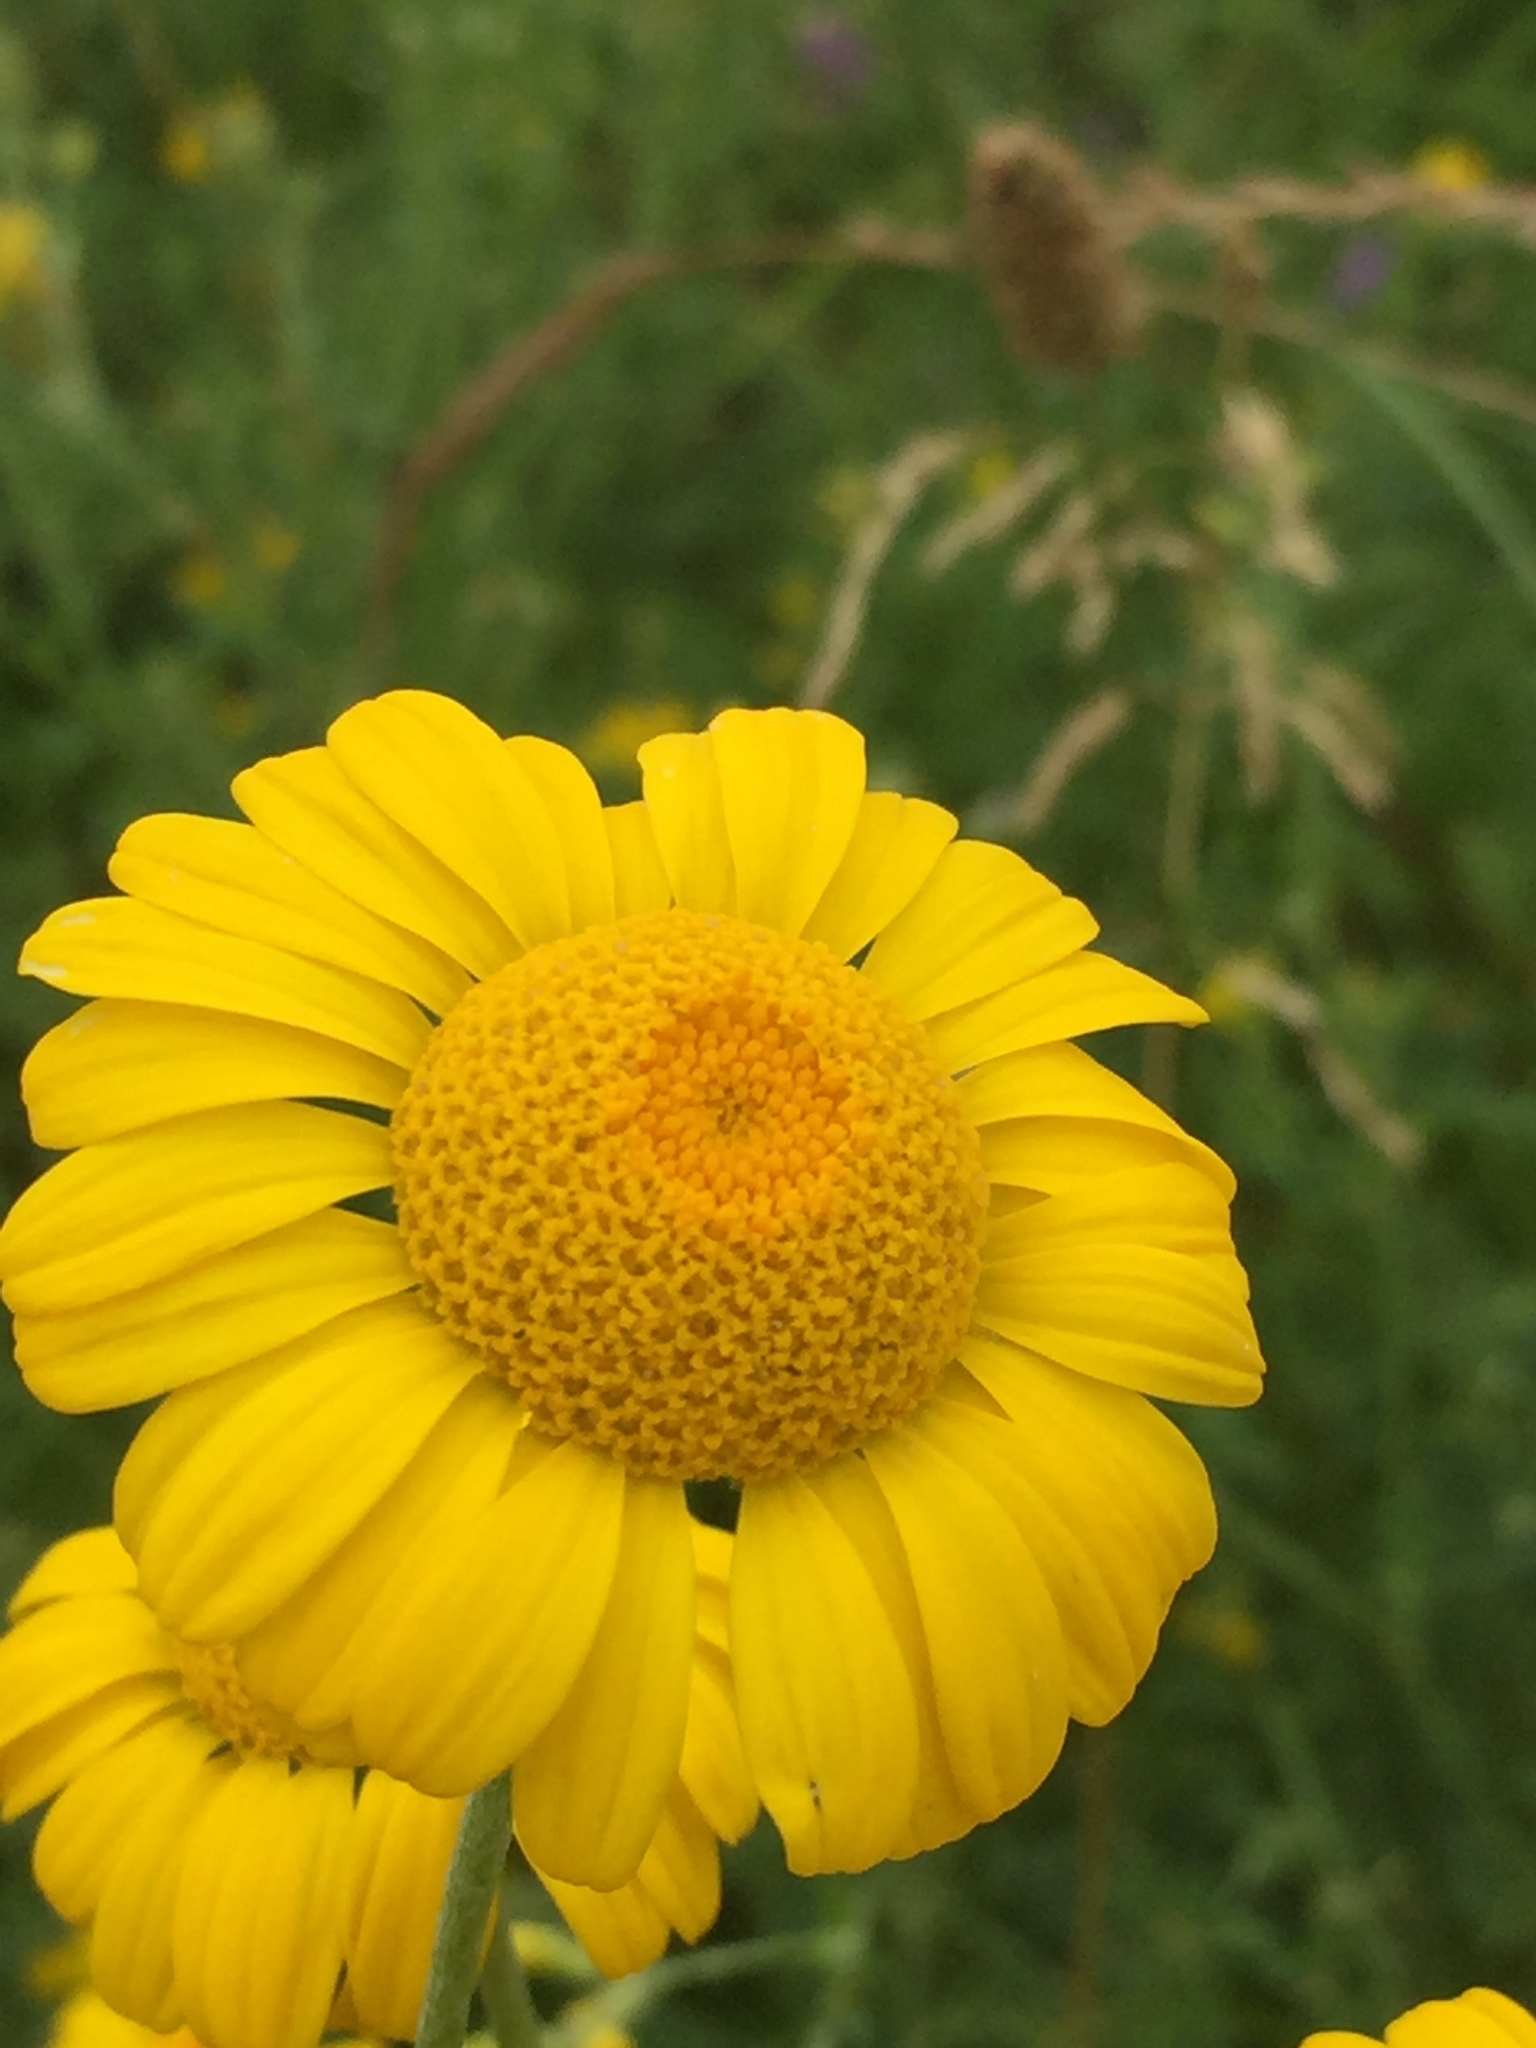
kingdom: Plantae
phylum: Tracheophyta
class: Magnoliopsida
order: Asterales
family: Asteraceae
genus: Cota
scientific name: Cota tinctoria
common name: Golden chamomile
